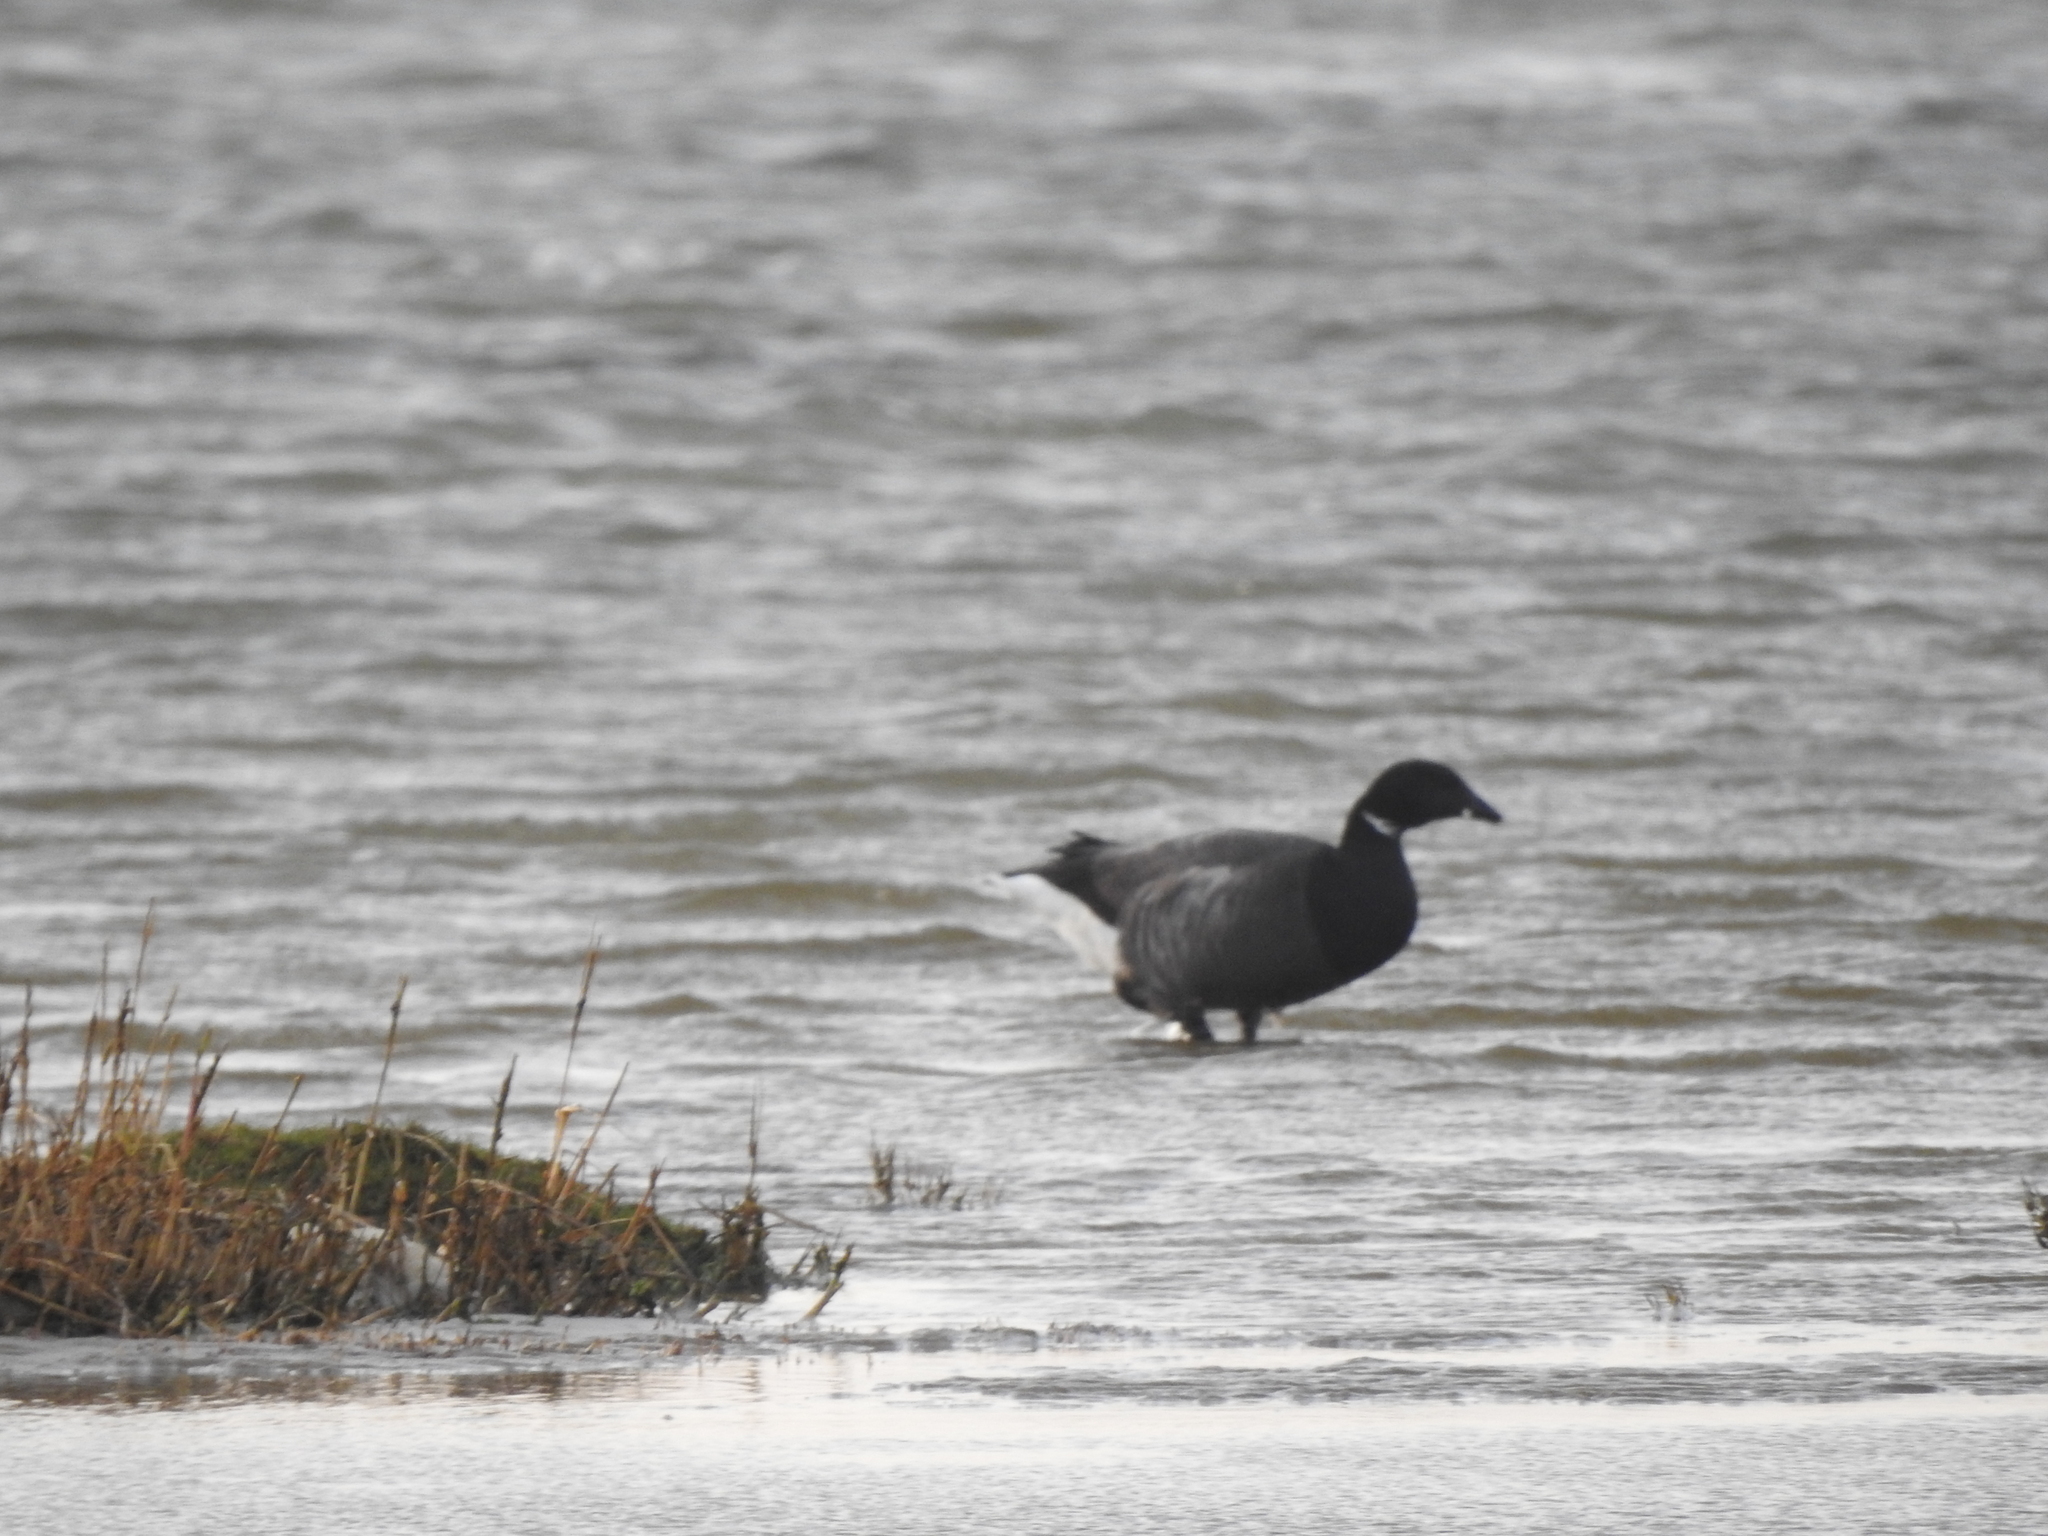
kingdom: Animalia
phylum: Chordata
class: Aves
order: Anseriformes
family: Anatidae
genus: Branta
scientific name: Branta bernicla
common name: Brant goose
